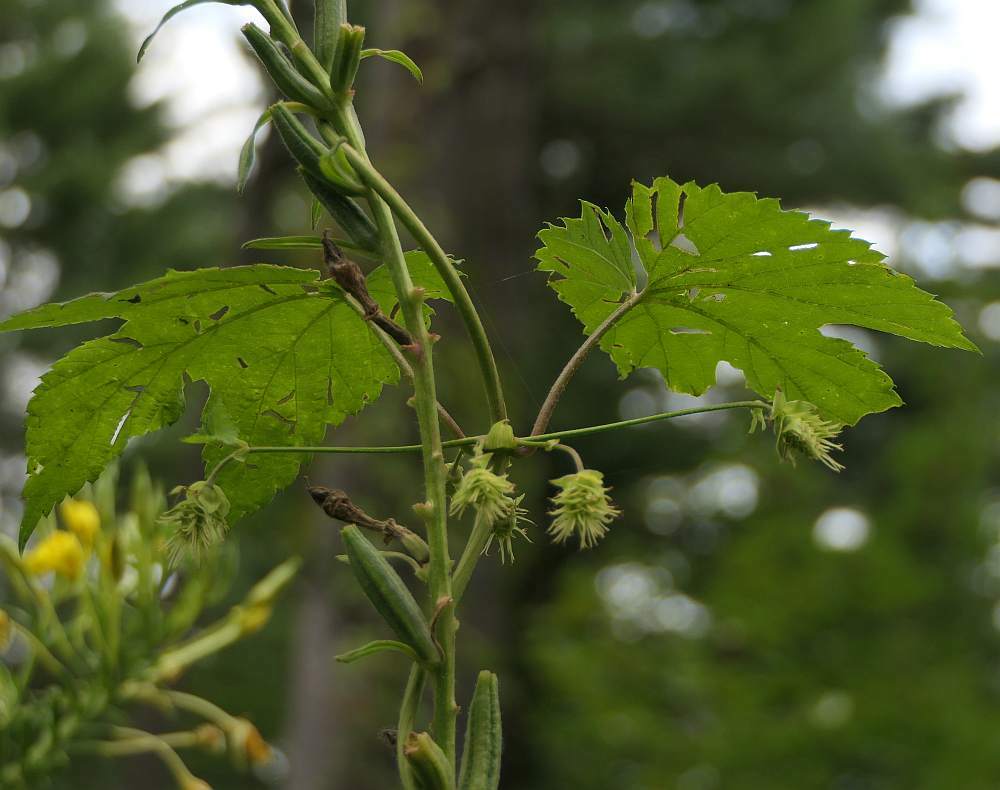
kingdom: Plantae
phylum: Tracheophyta
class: Magnoliopsida
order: Rosales
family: Cannabaceae
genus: Humulus
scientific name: Humulus lupulus
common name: Hop
